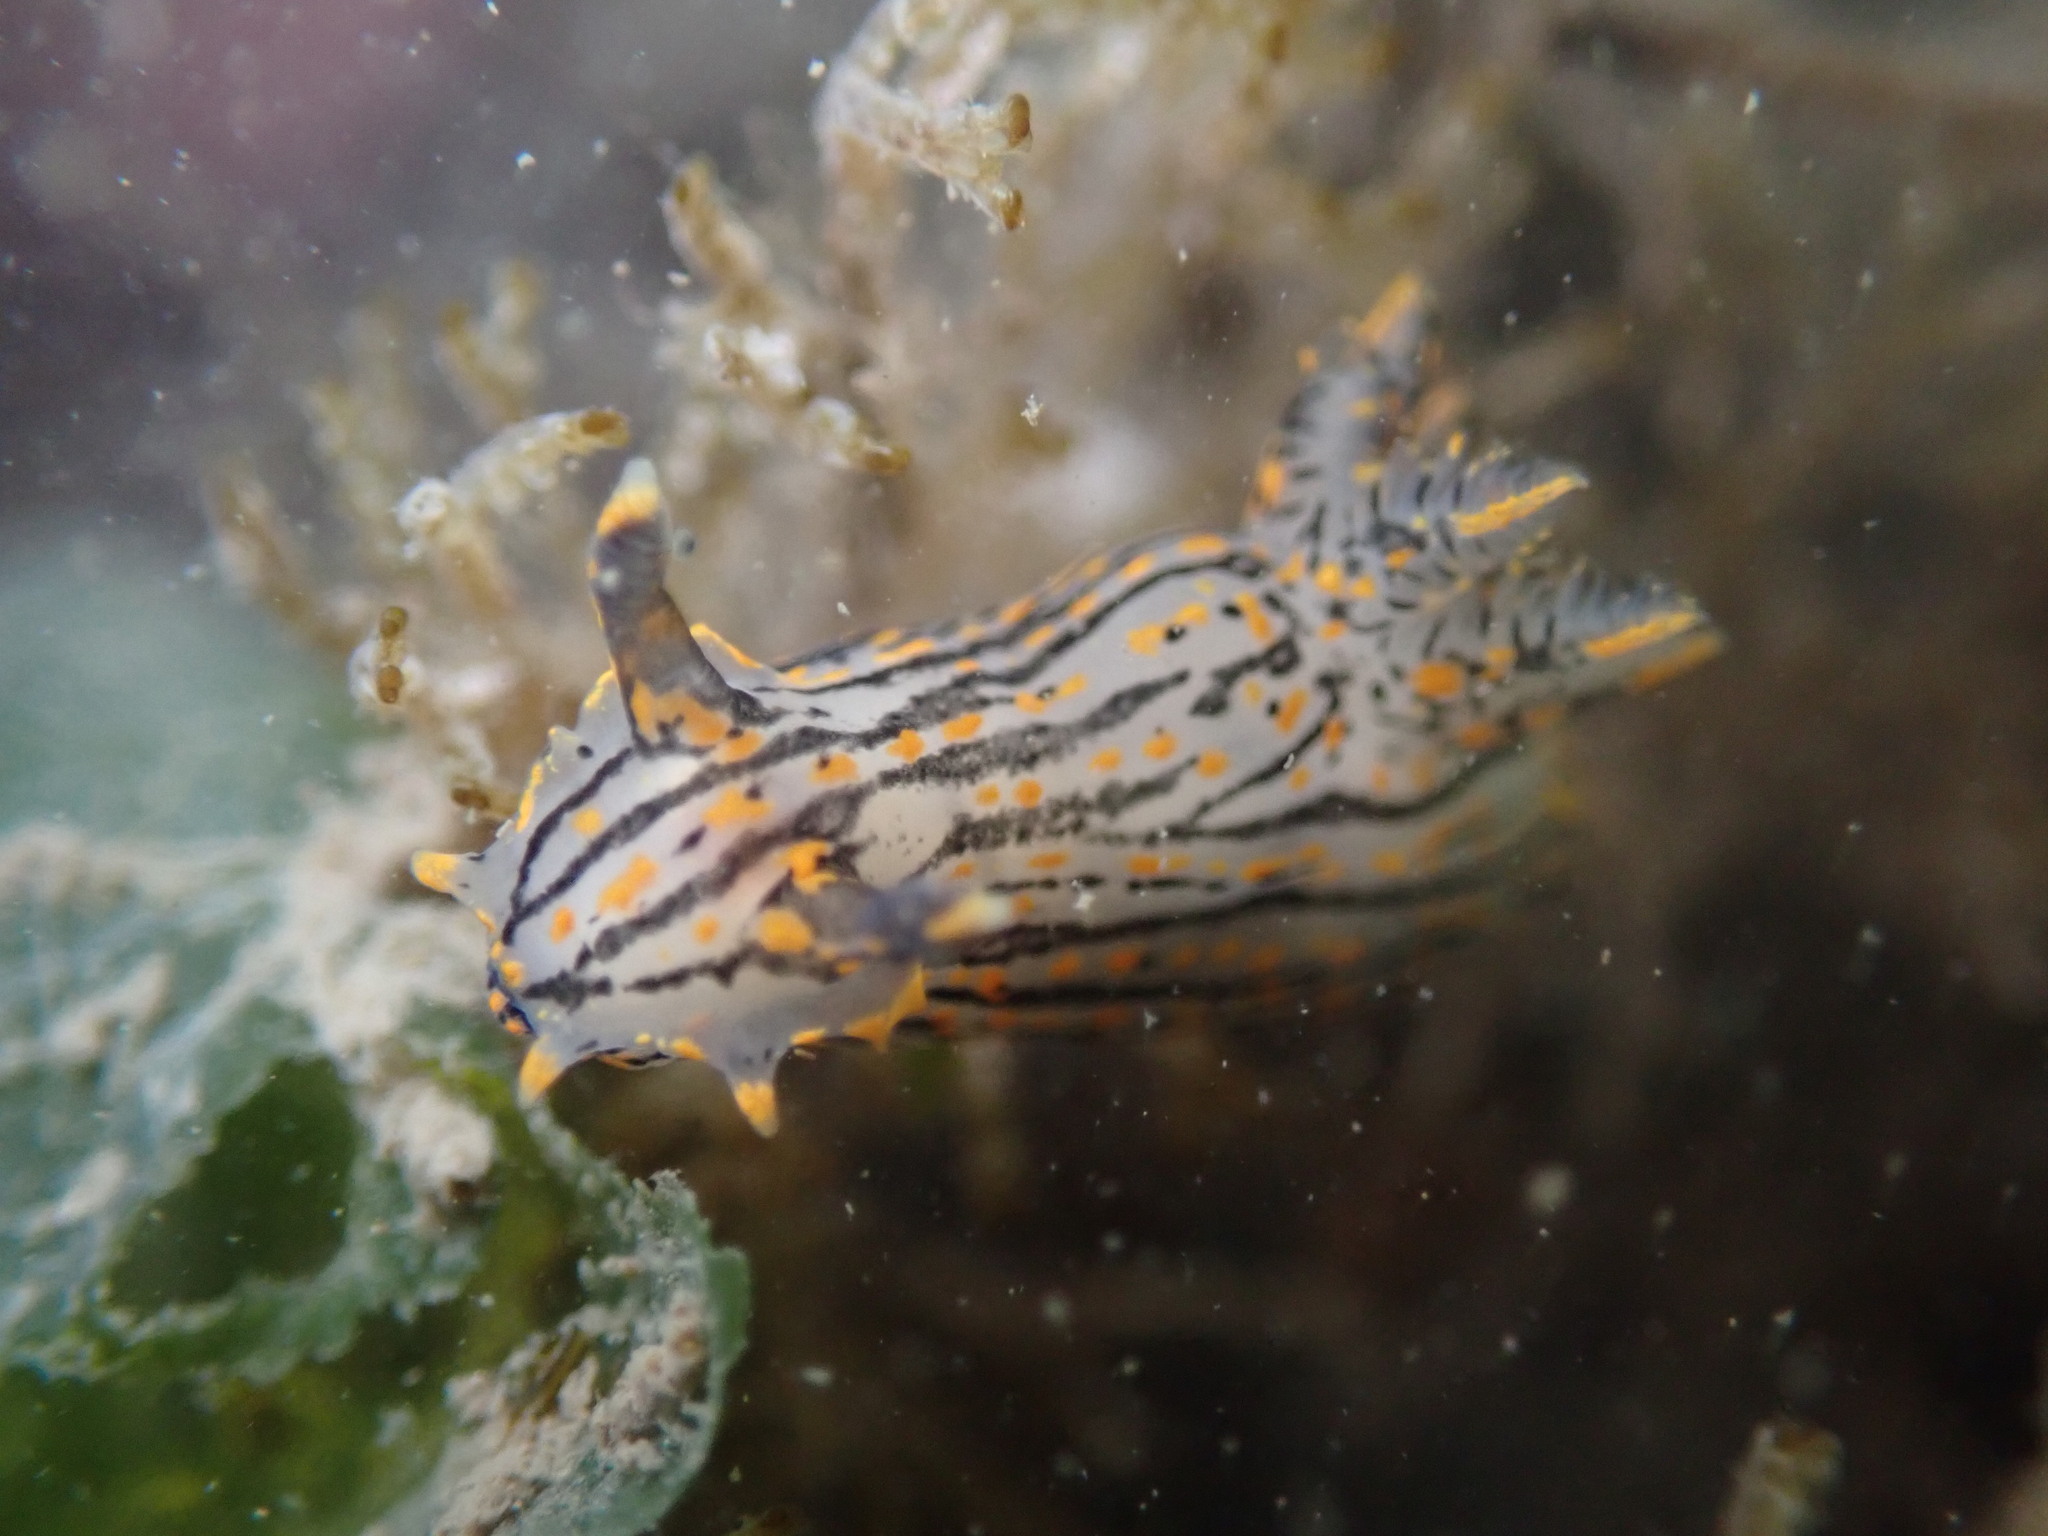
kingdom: Animalia
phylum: Mollusca
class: Gastropoda
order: Nudibranchia
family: Polyceridae
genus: Polycera
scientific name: Polycera atra
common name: Orange-spike polycera
